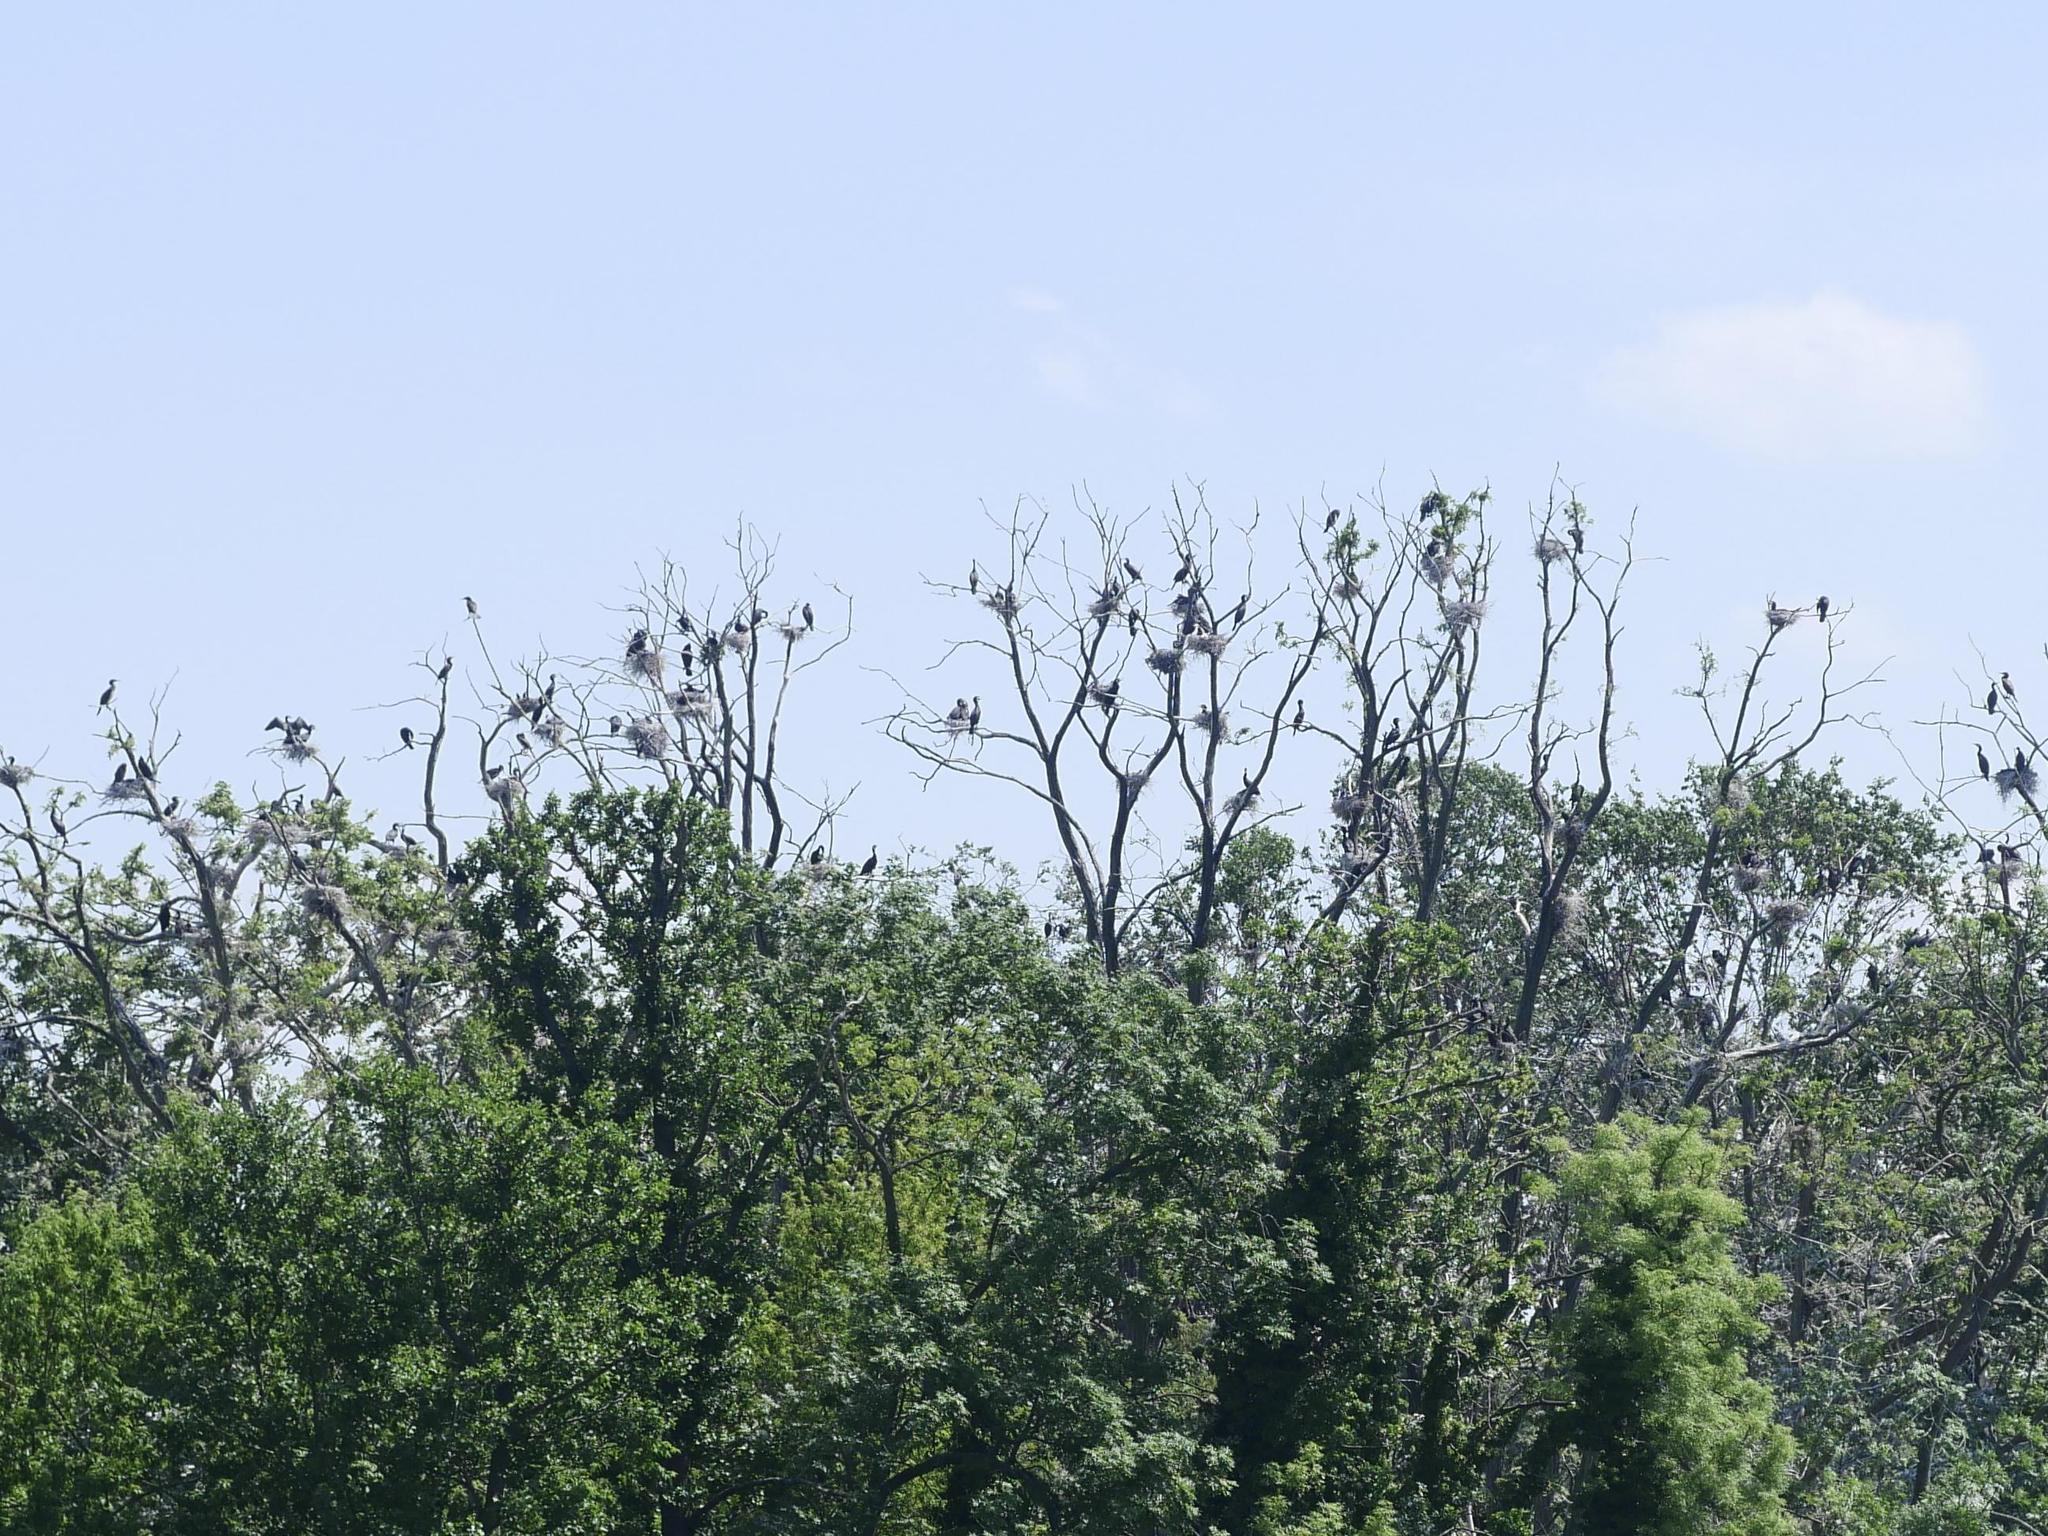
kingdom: Animalia
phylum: Chordata
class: Aves
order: Suliformes
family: Phalacrocoracidae
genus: Phalacrocorax
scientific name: Phalacrocorax carbo
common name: Great cormorant
